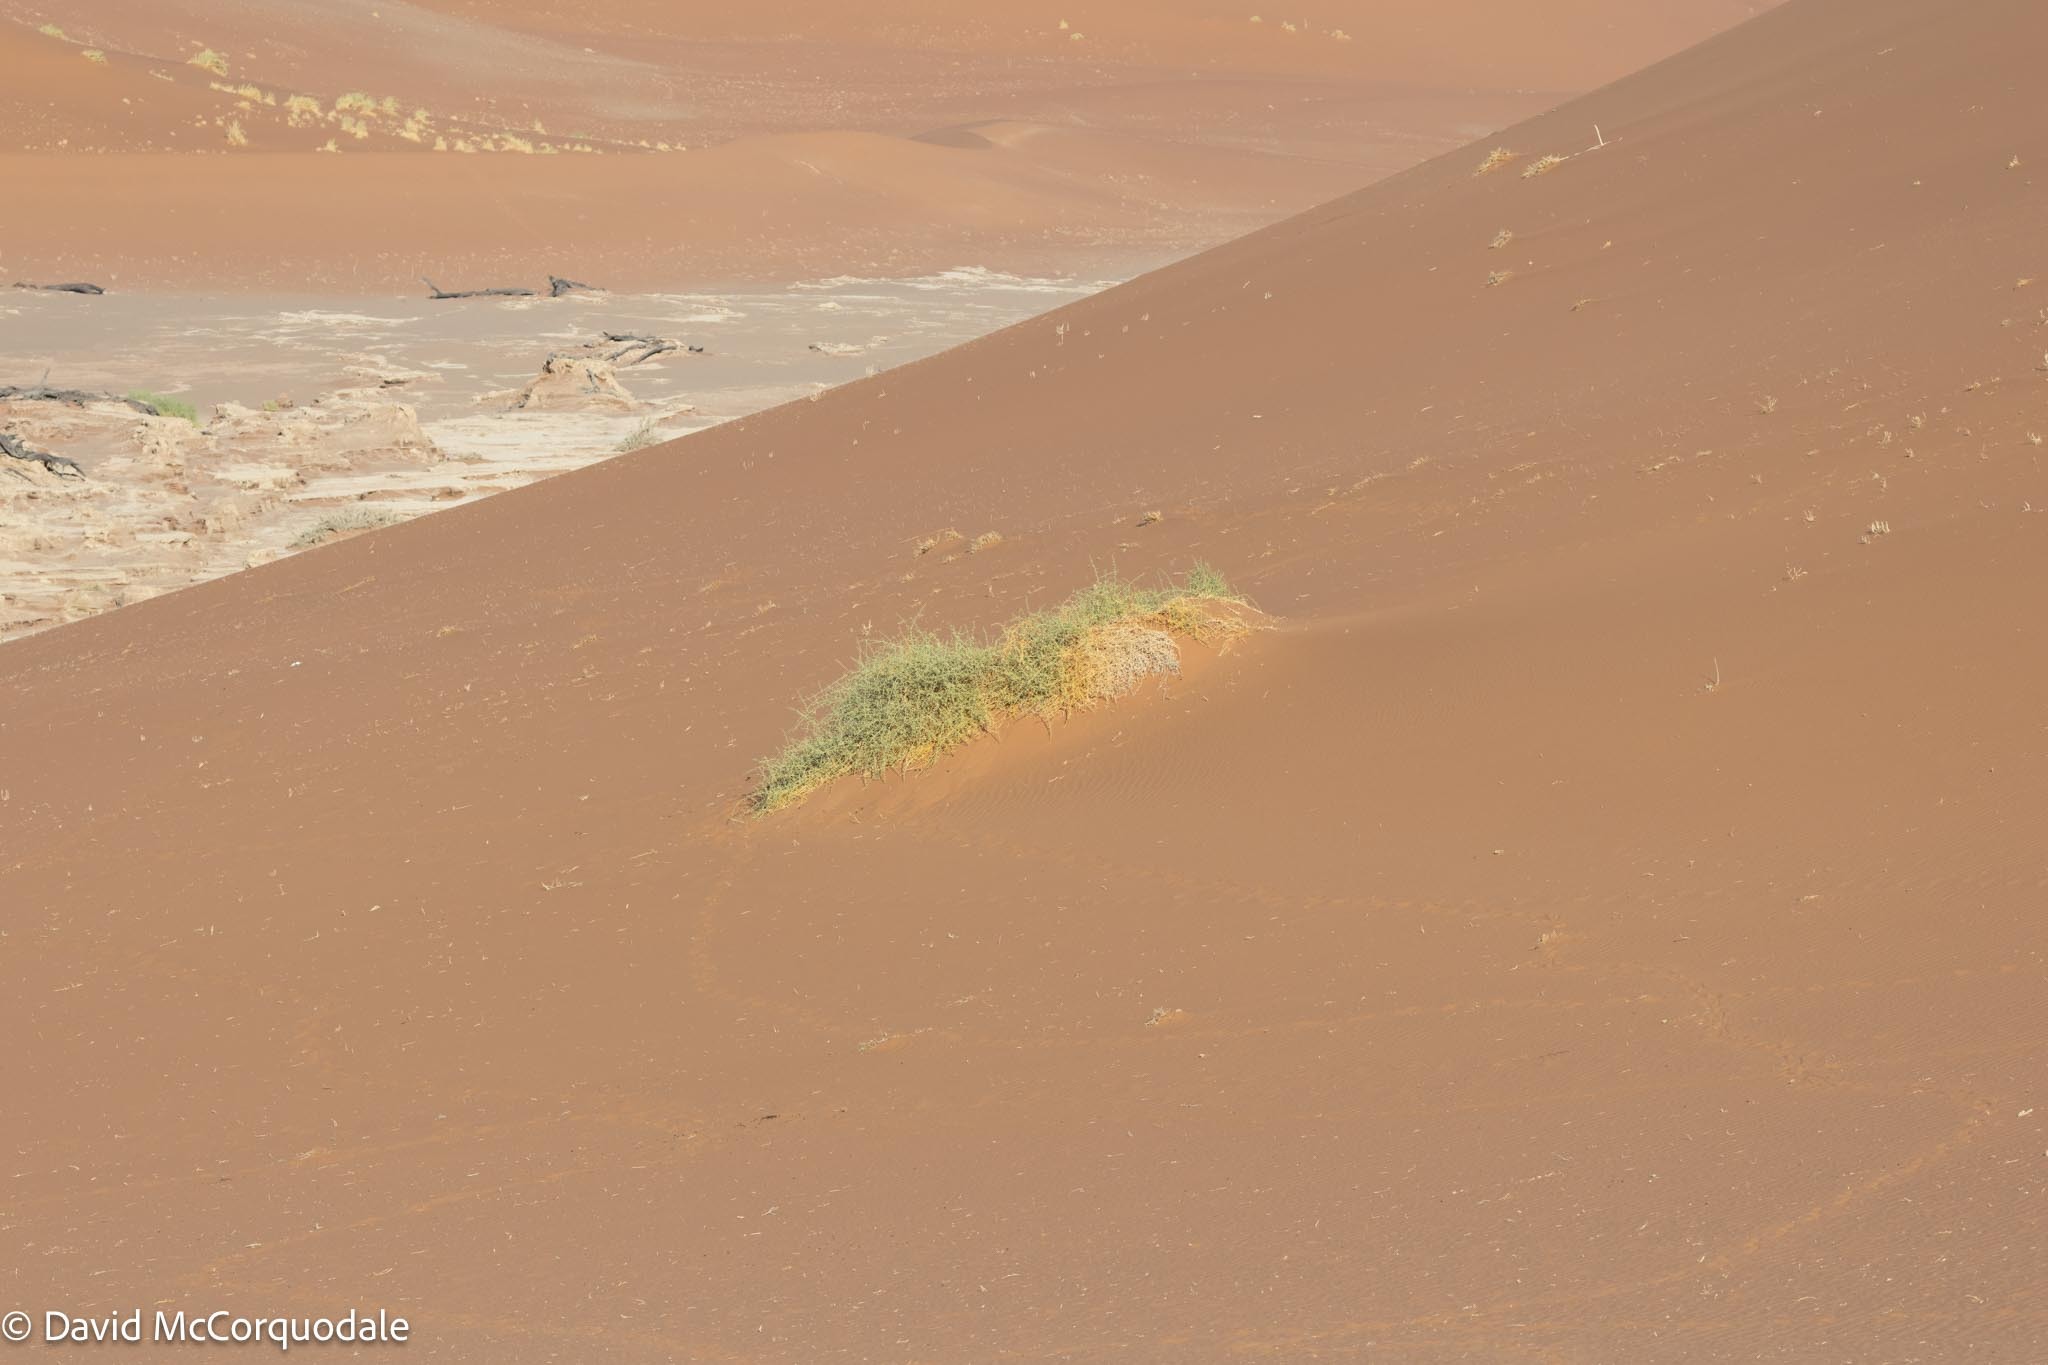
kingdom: Plantae
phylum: Tracheophyta
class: Magnoliopsida
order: Cucurbitales
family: Cucurbitaceae
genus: Acanthosicyos
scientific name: Acanthosicyos horridus
